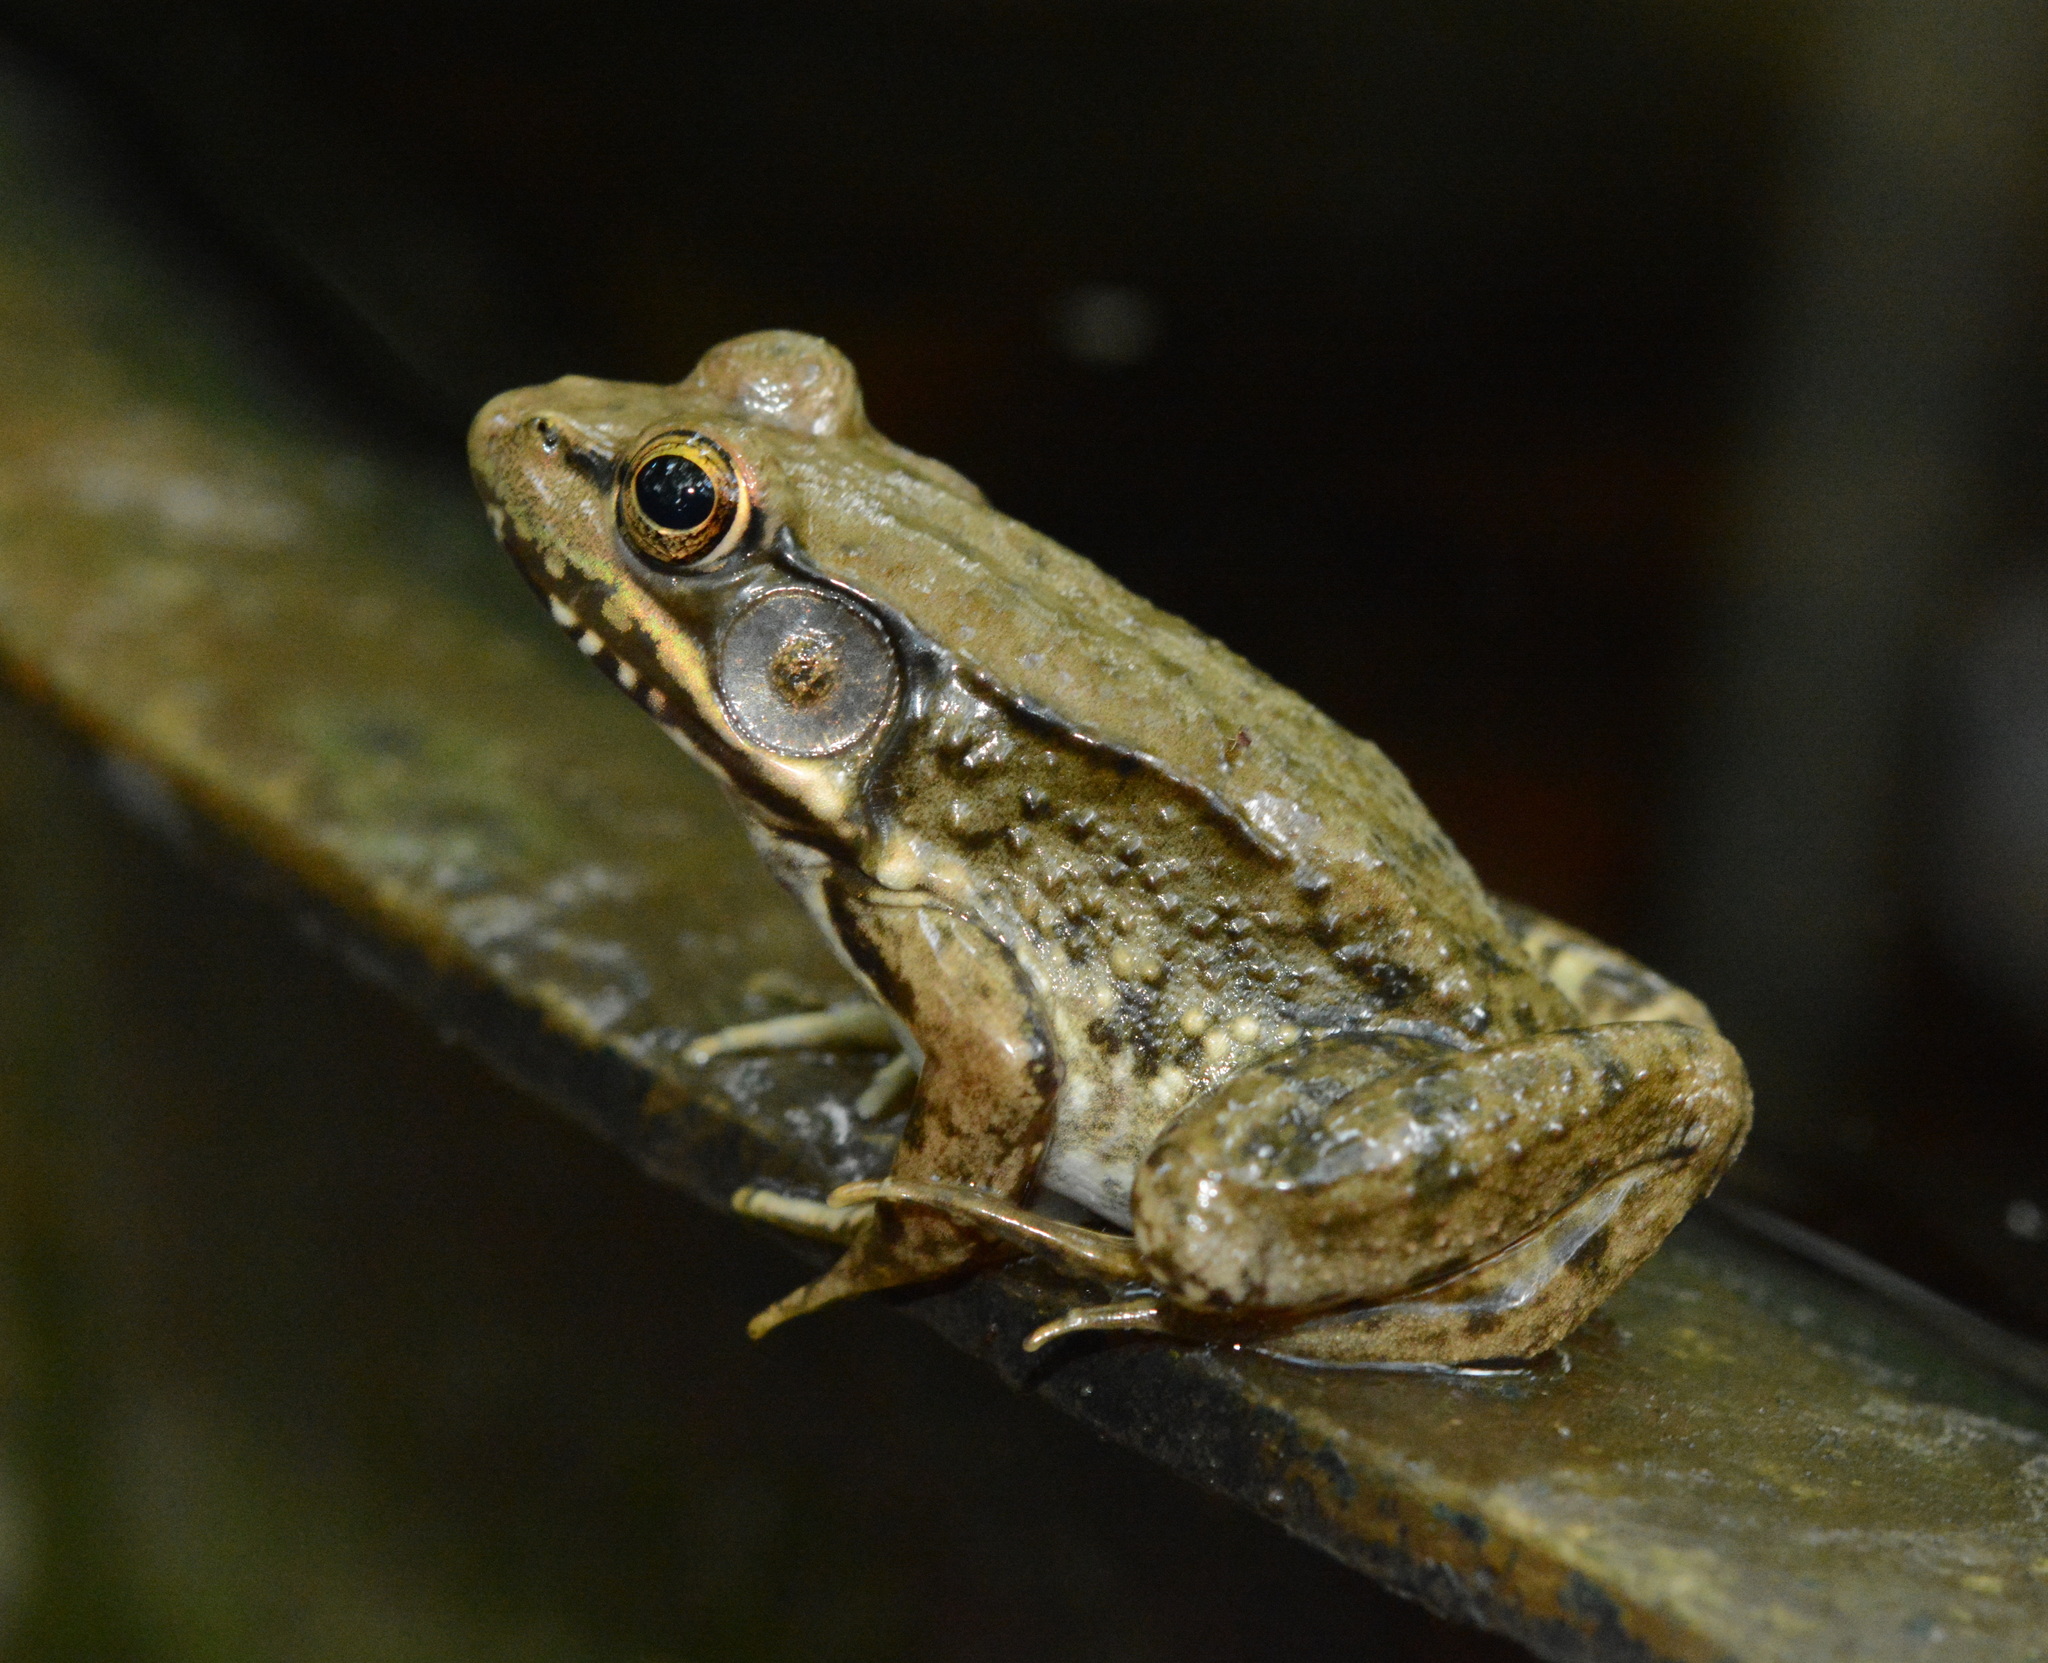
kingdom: Animalia
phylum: Chordata
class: Amphibia
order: Anura
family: Ranidae
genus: Lithobates
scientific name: Lithobates clamitans
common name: Green frog
